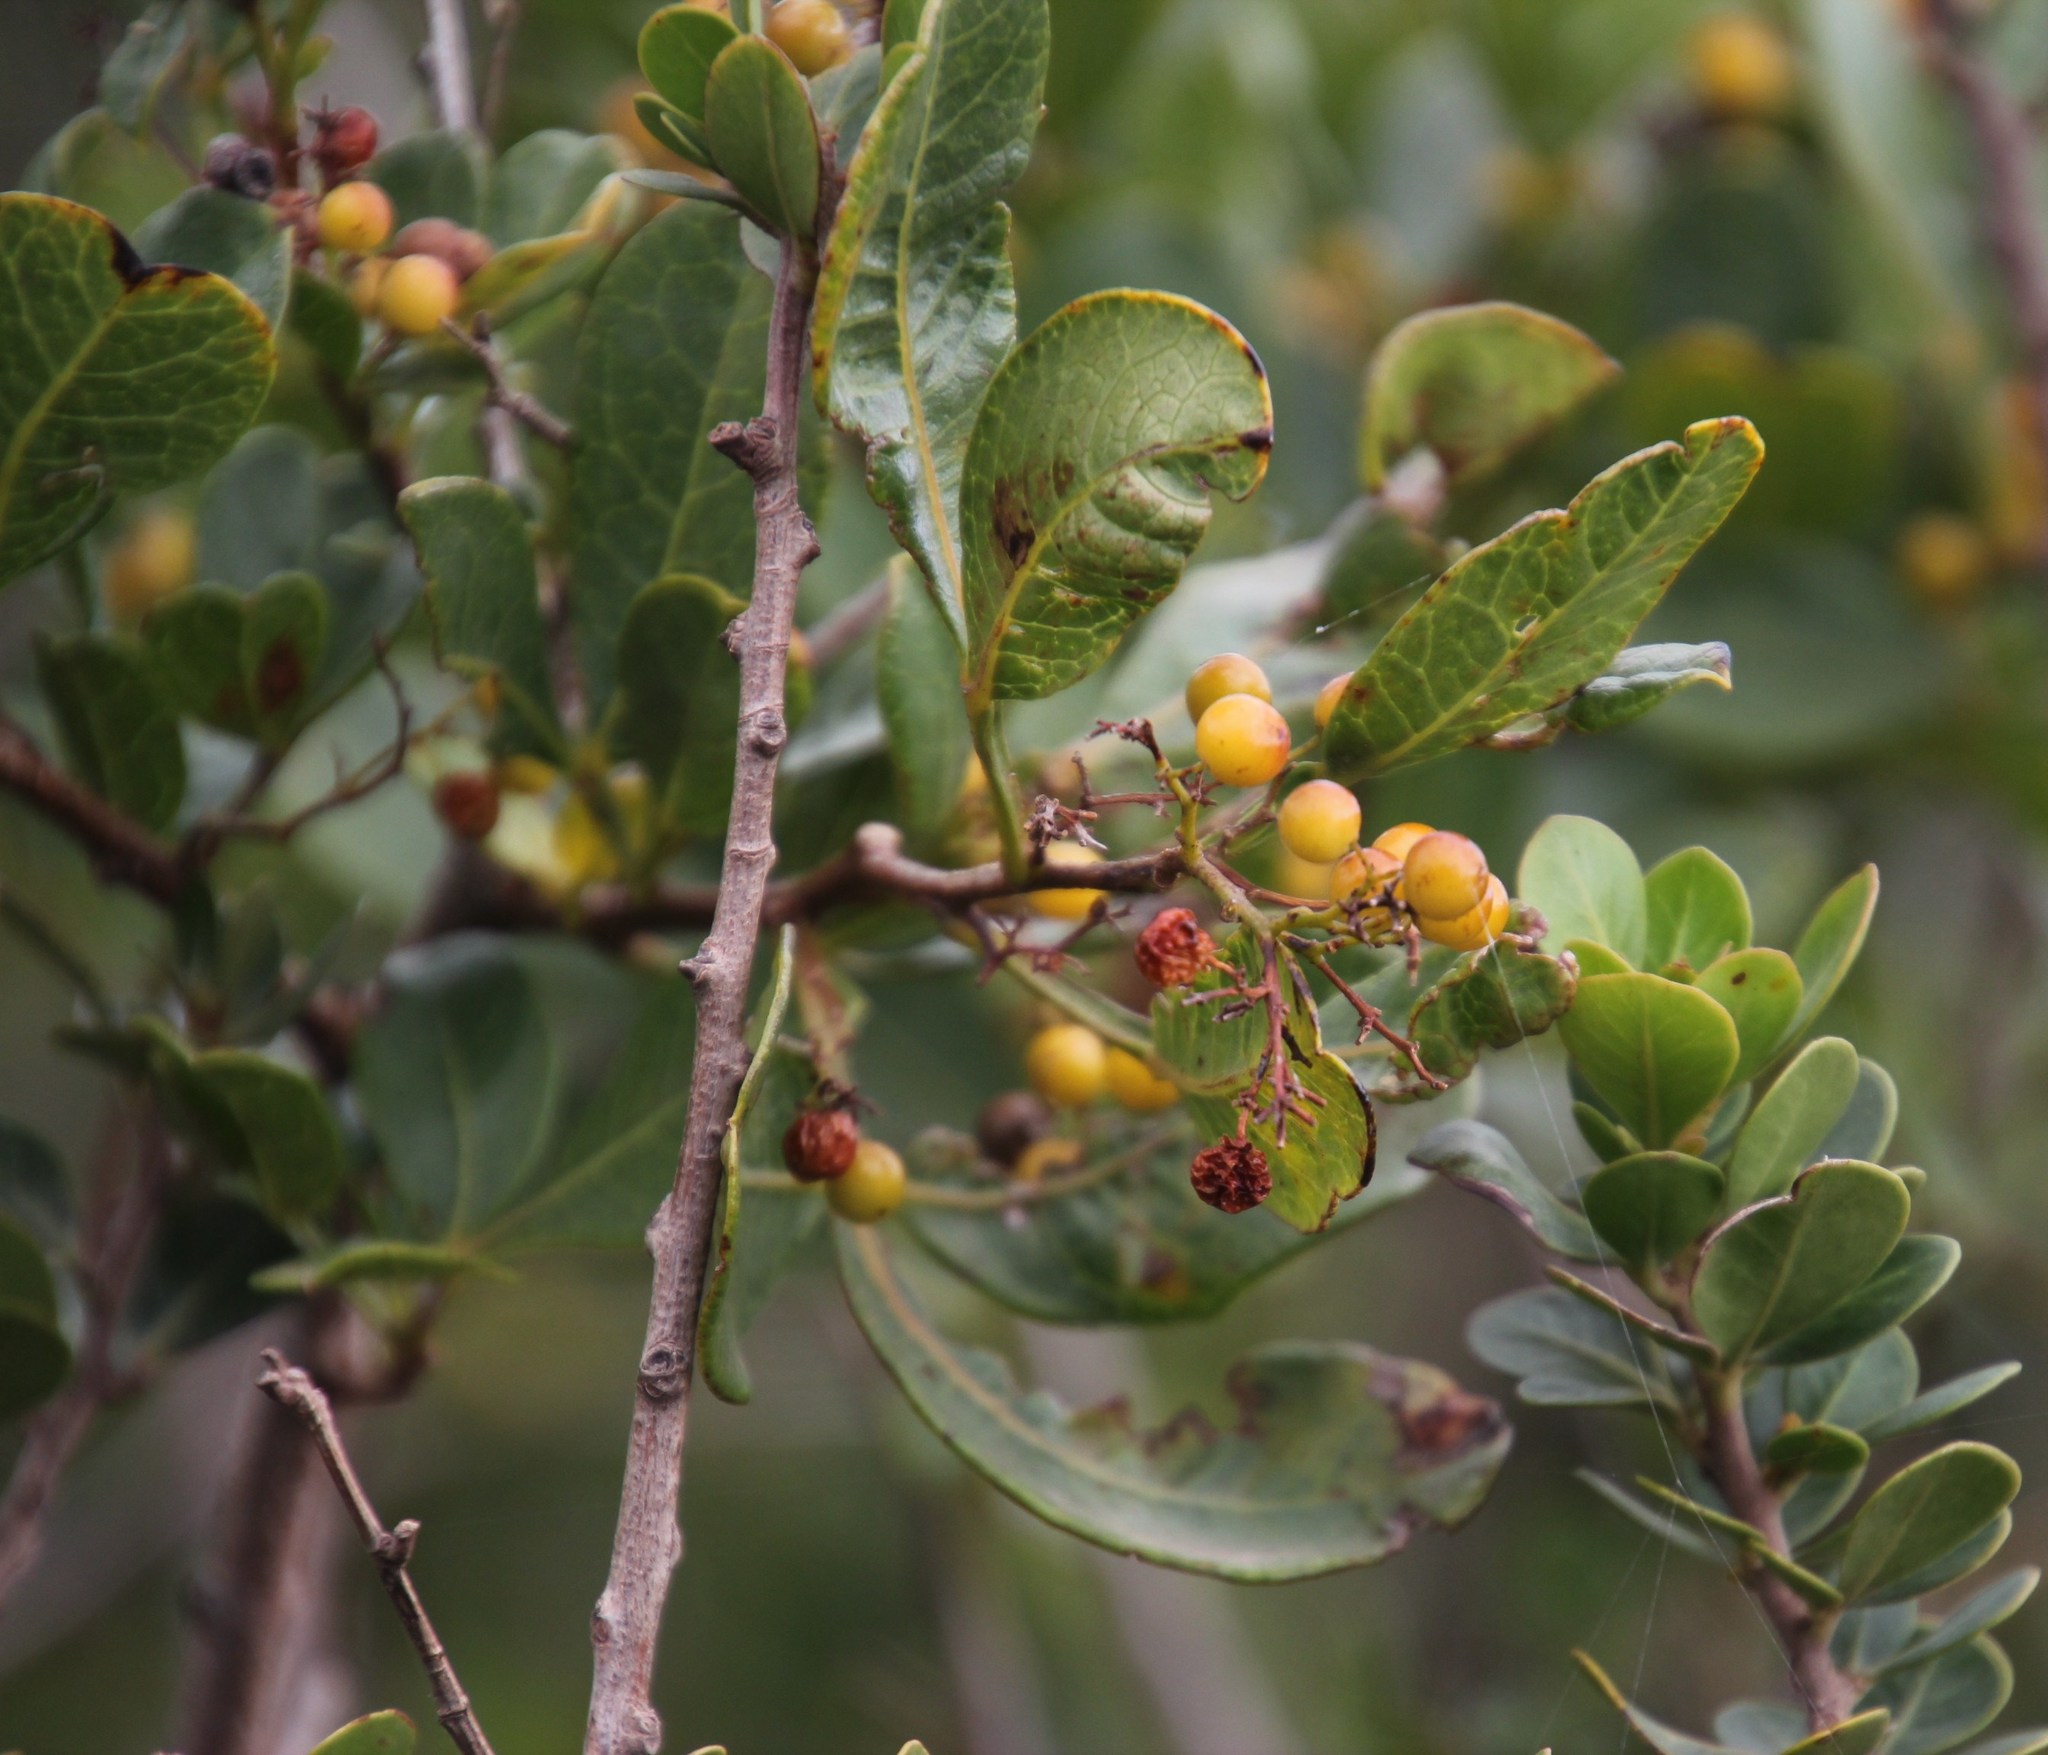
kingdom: Plantae
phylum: Tracheophyta
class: Magnoliopsida
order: Sapindales
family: Anacardiaceae
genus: Searsia
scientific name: Searsia laevigata
